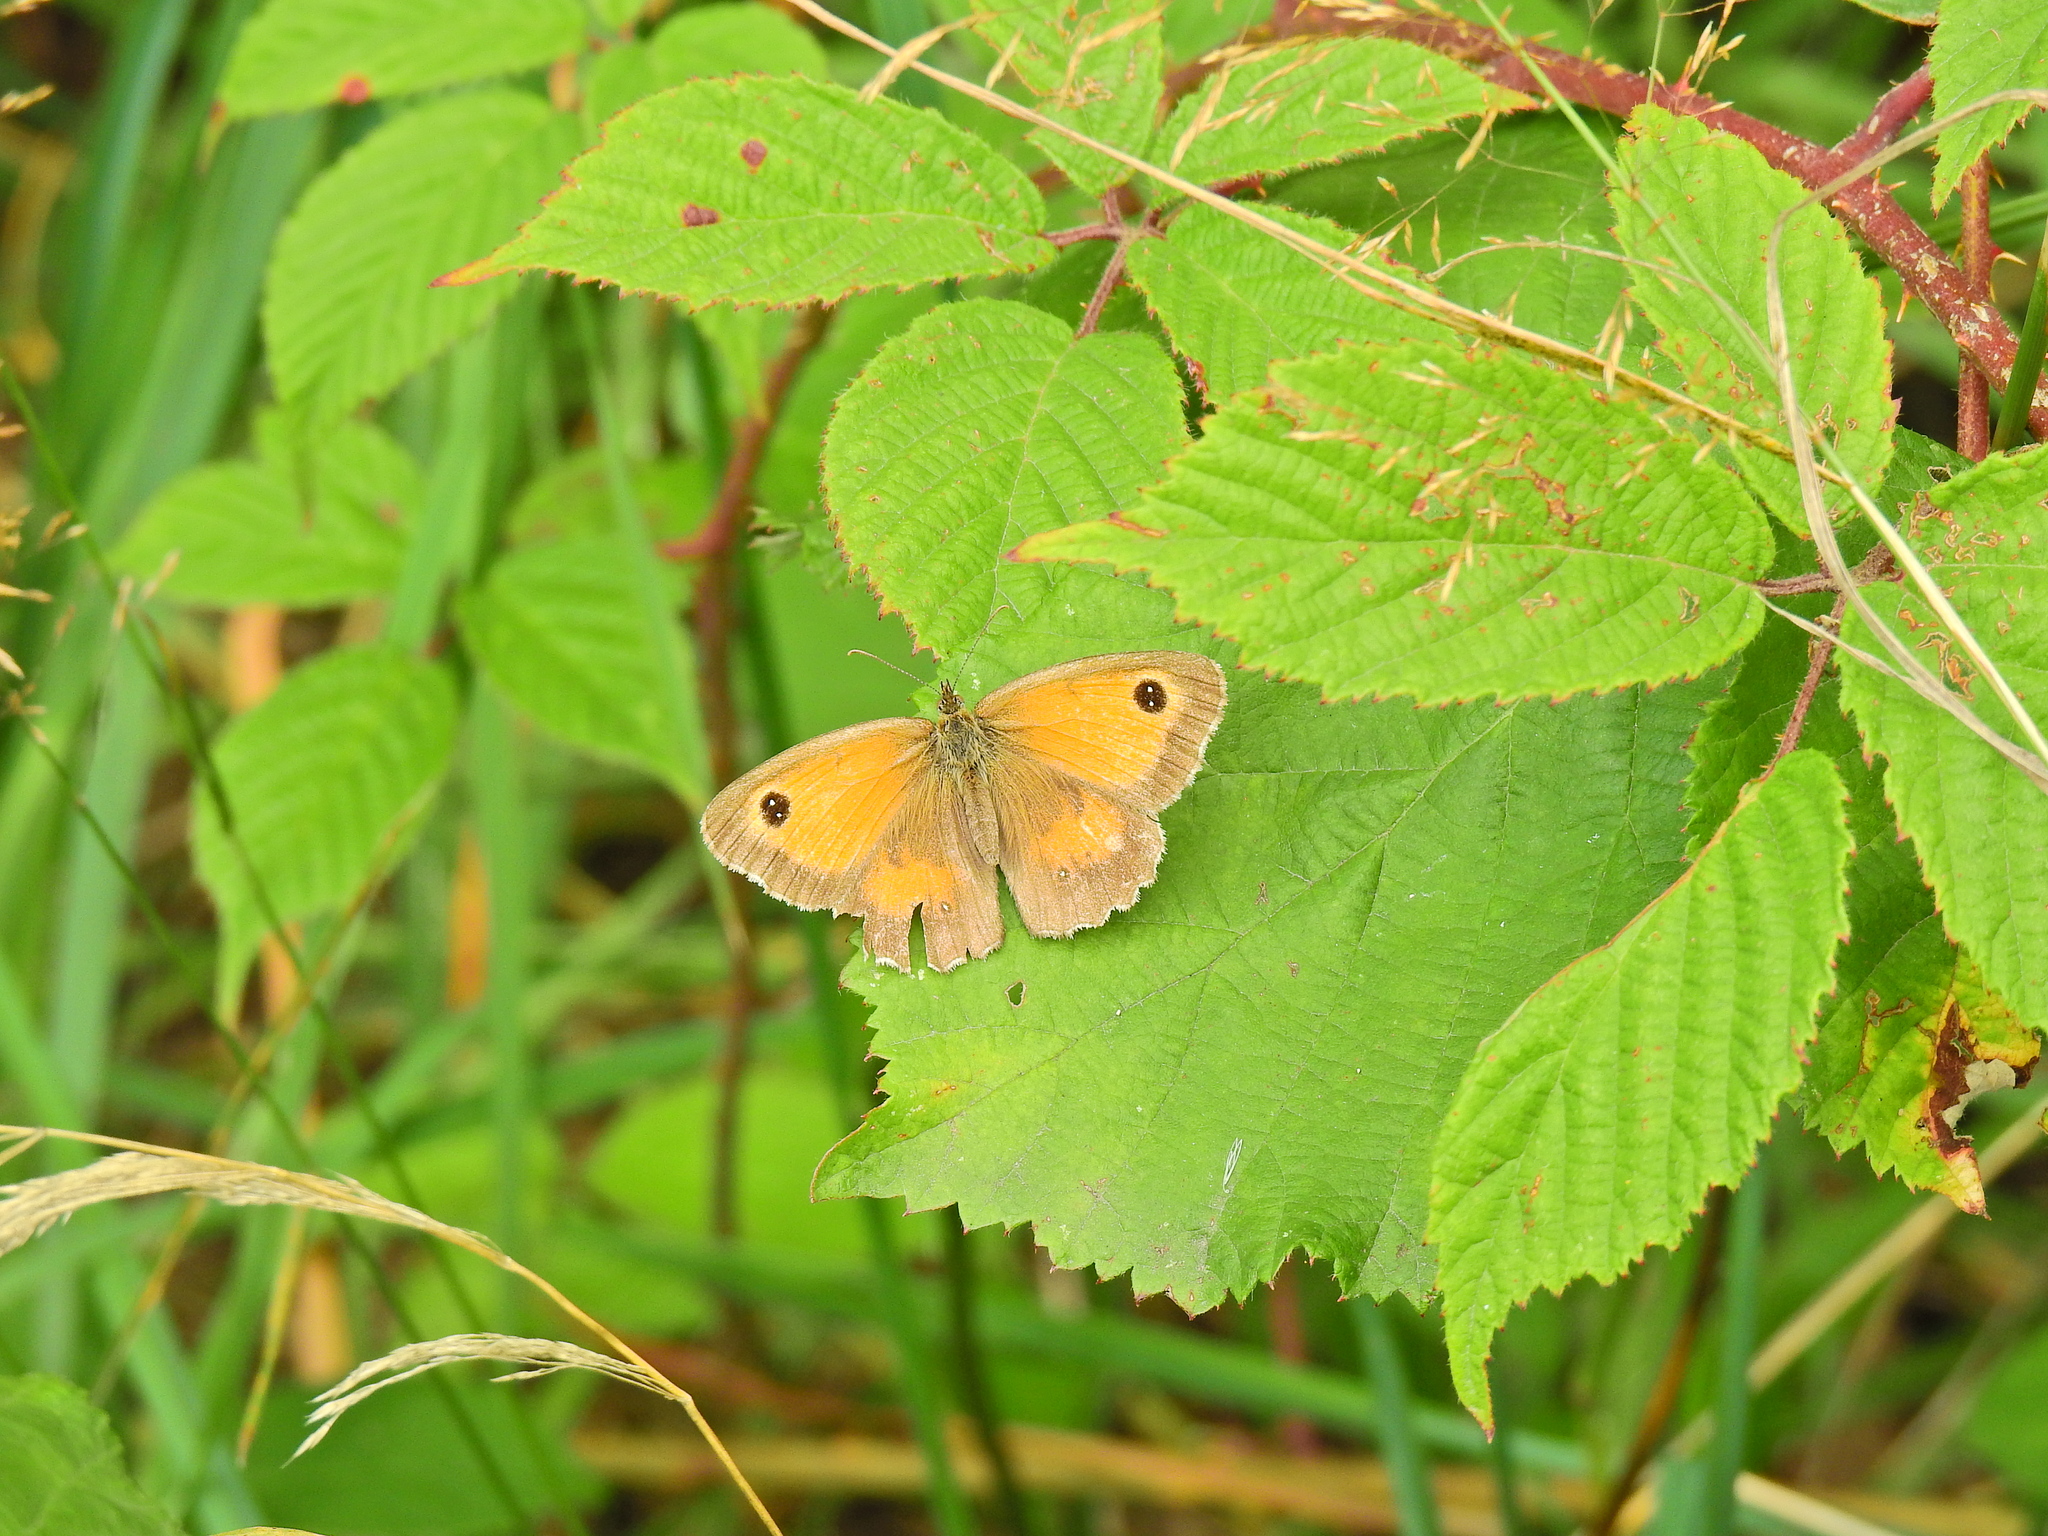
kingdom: Animalia
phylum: Arthropoda
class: Insecta
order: Lepidoptera
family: Nymphalidae
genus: Pyronia
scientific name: Pyronia tithonus
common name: Gatekeeper
